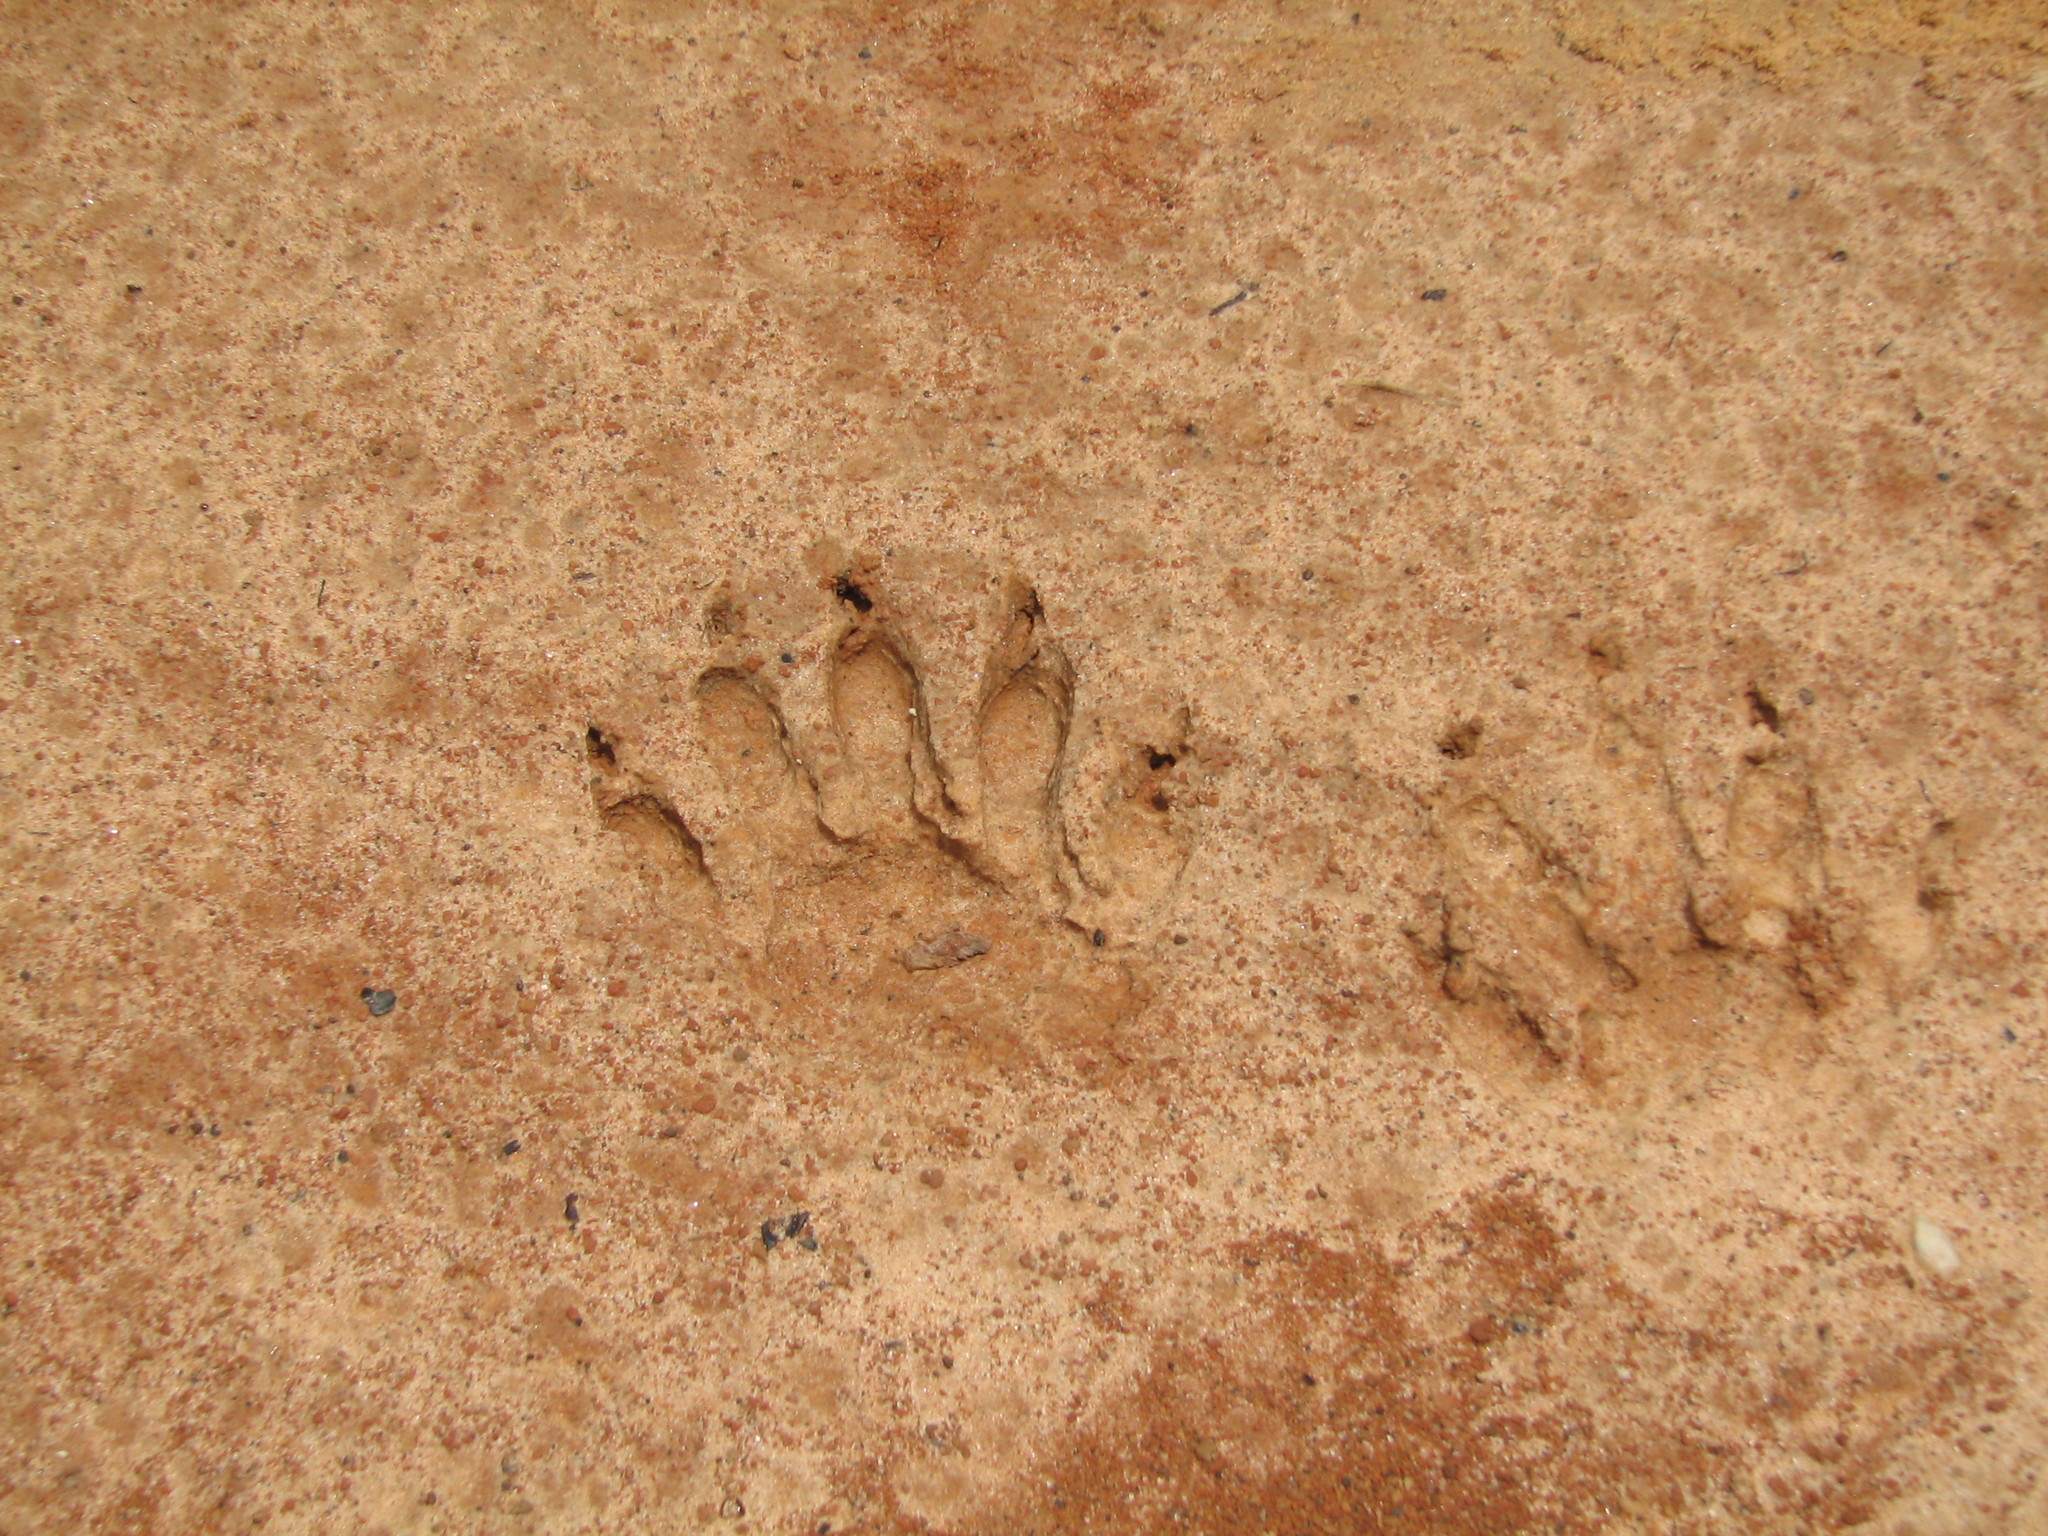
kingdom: Animalia
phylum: Chordata
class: Mammalia
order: Carnivora
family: Procyonidae
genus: Procyon
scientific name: Procyon lotor
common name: Raccoon
